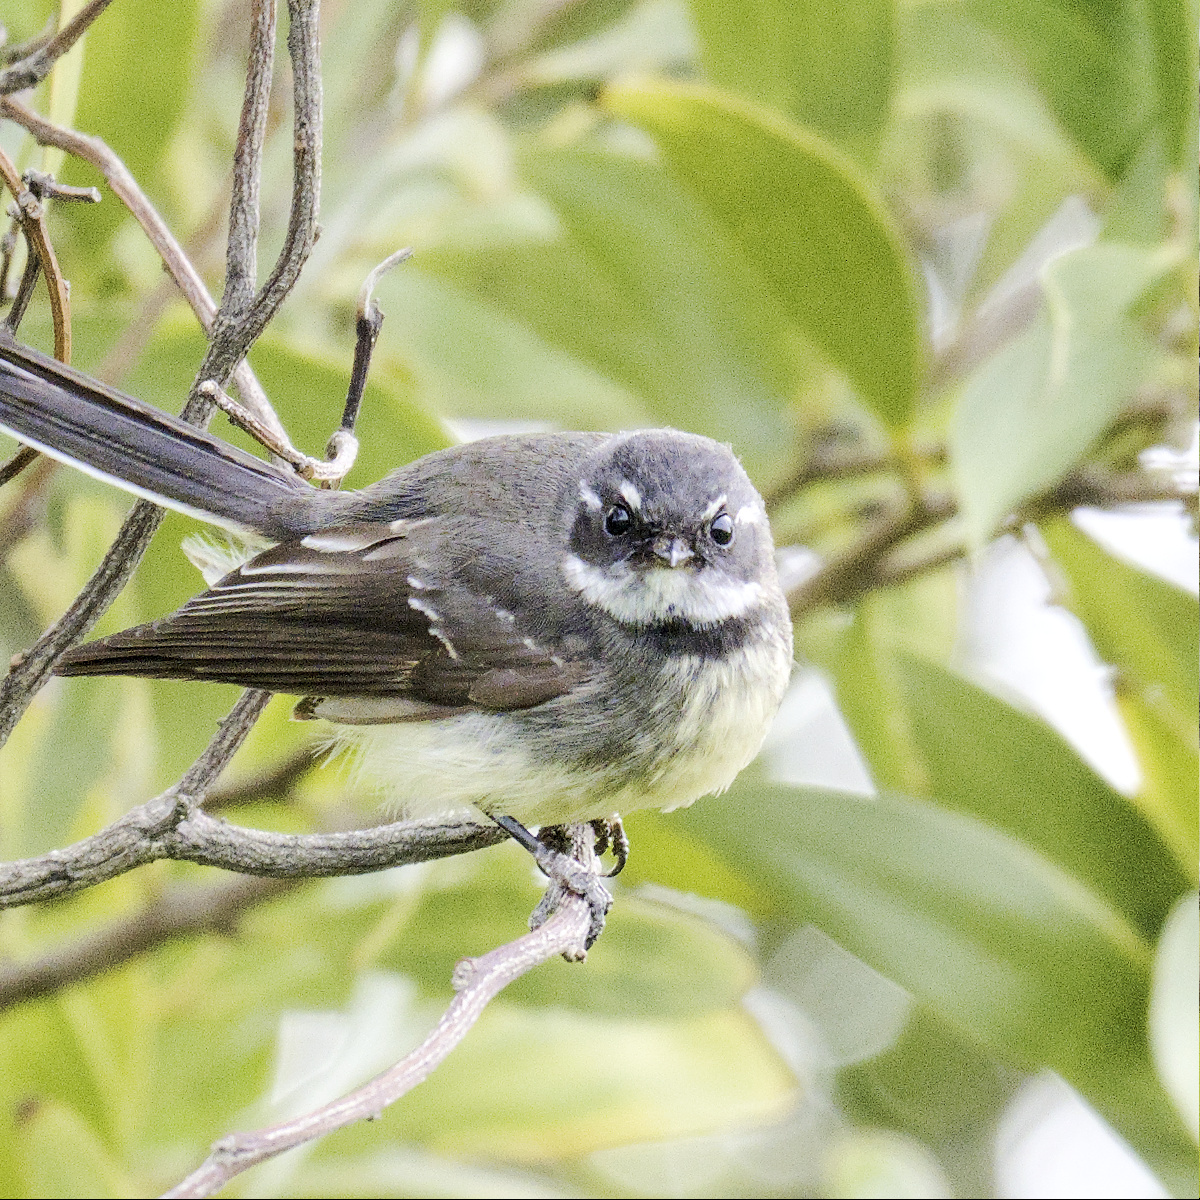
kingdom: Animalia
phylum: Chordata
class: Aves
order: Passeriformes
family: Rhipiduridae
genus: Rhipidura
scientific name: Rhipidura albiscapa
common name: Grey fantail
